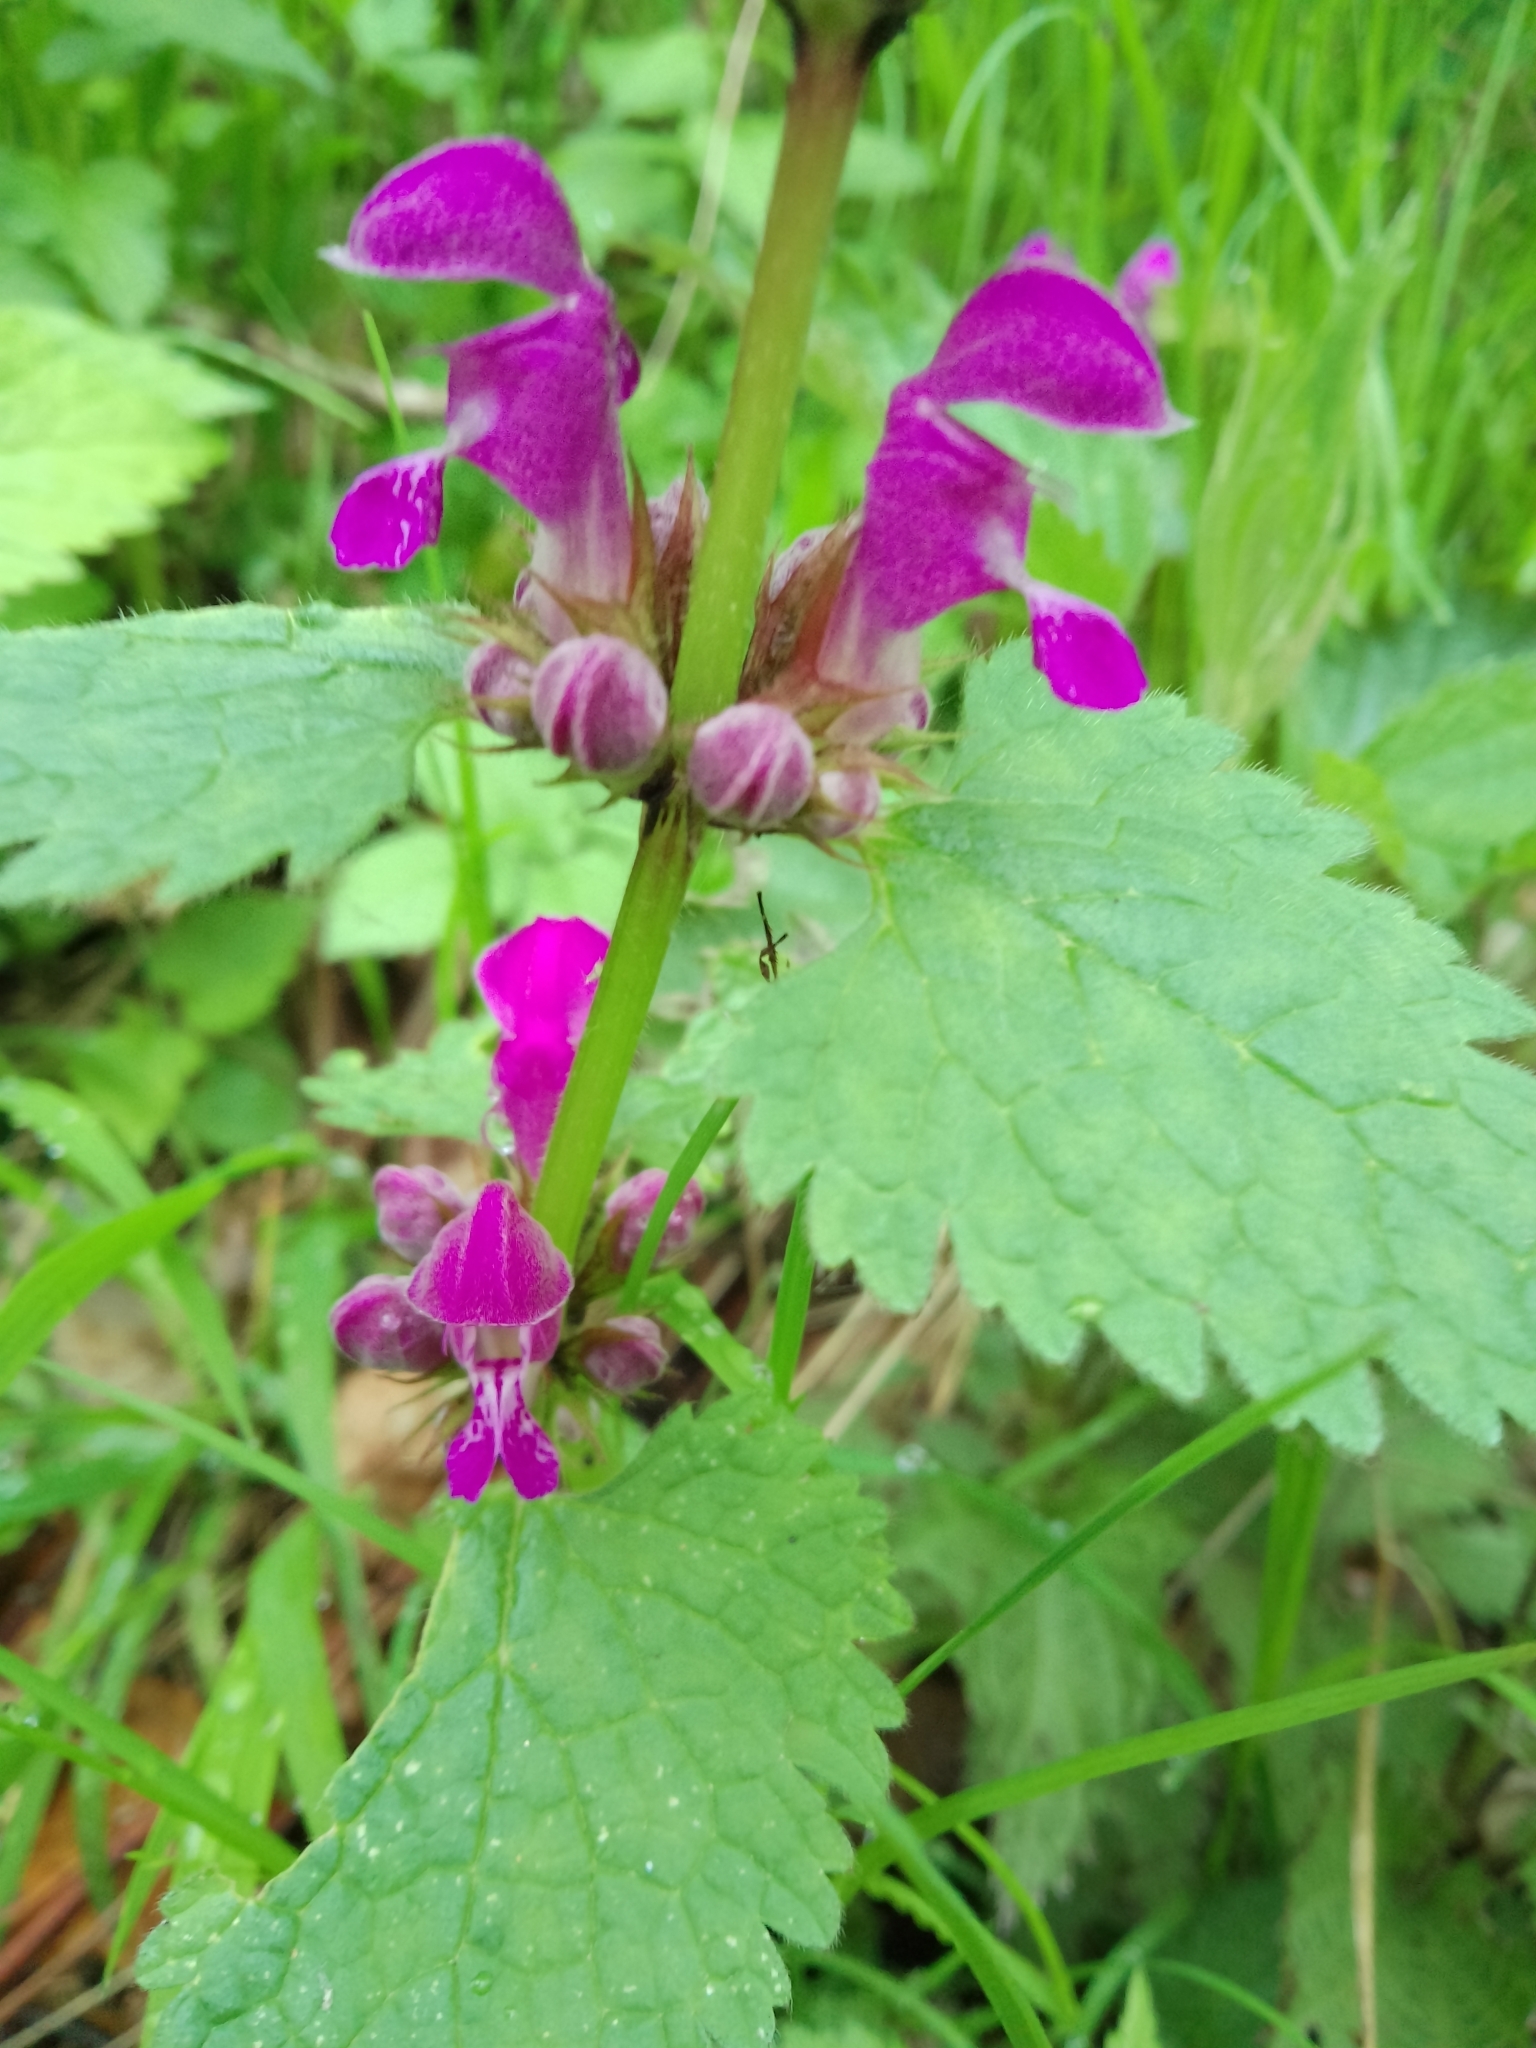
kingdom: Plantae
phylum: Tracheophyta
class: Magnoliopsida
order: Lamiales
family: Lamiaceae
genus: Lamium
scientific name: Lamium maculatum
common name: Spotted dead-nettle
